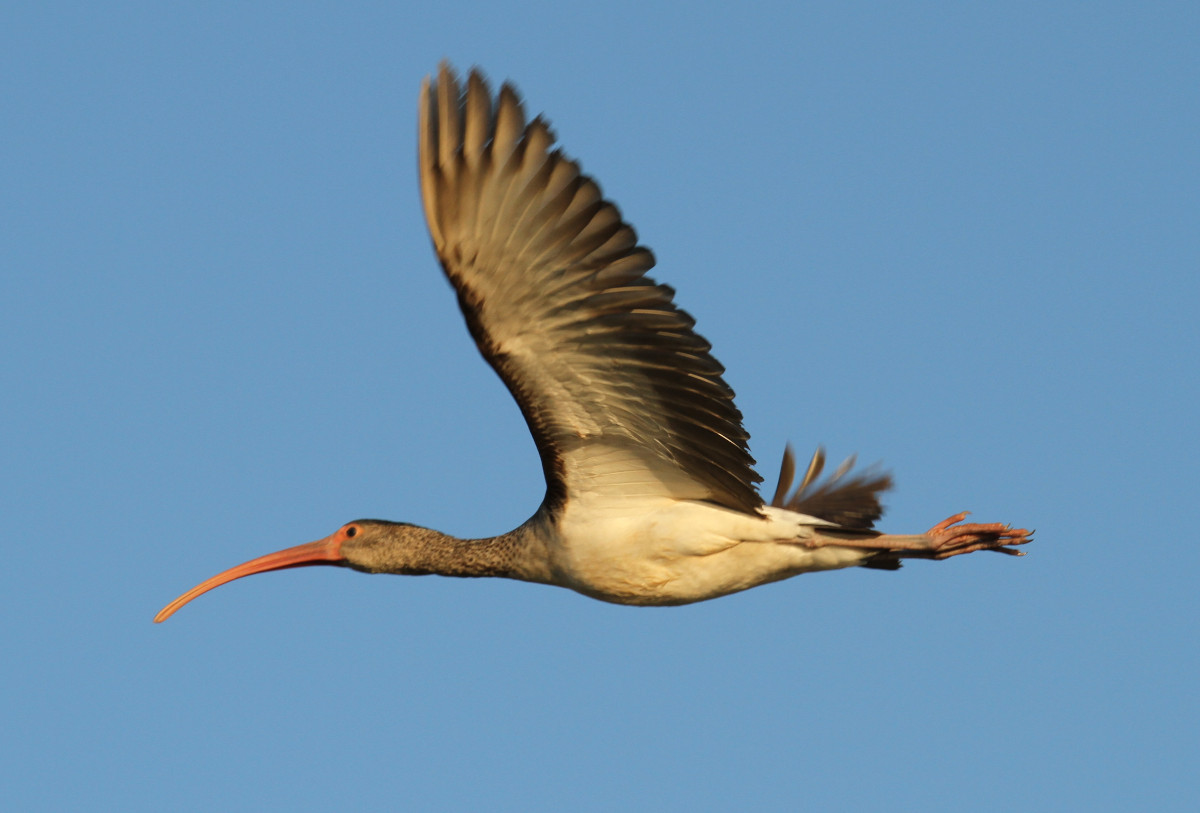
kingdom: Animalia
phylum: Chordata
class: Aves
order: Pelecaniformes
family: Threskiornithidae
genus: Eudocimus
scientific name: Eudocimus albus
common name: White ibis
